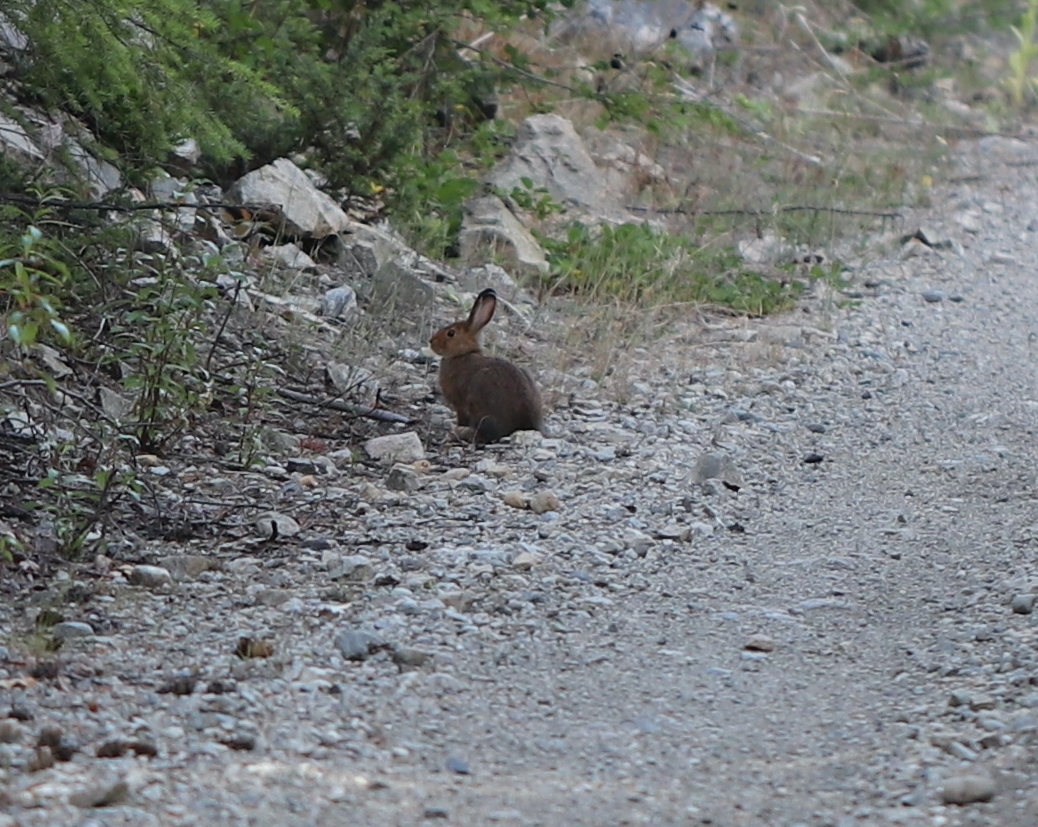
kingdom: Animalia
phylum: Chordata
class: Mammalia
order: Lagomorpha
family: Leporidae
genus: Lepus
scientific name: Lepus americanus
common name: Snowshoe hare
